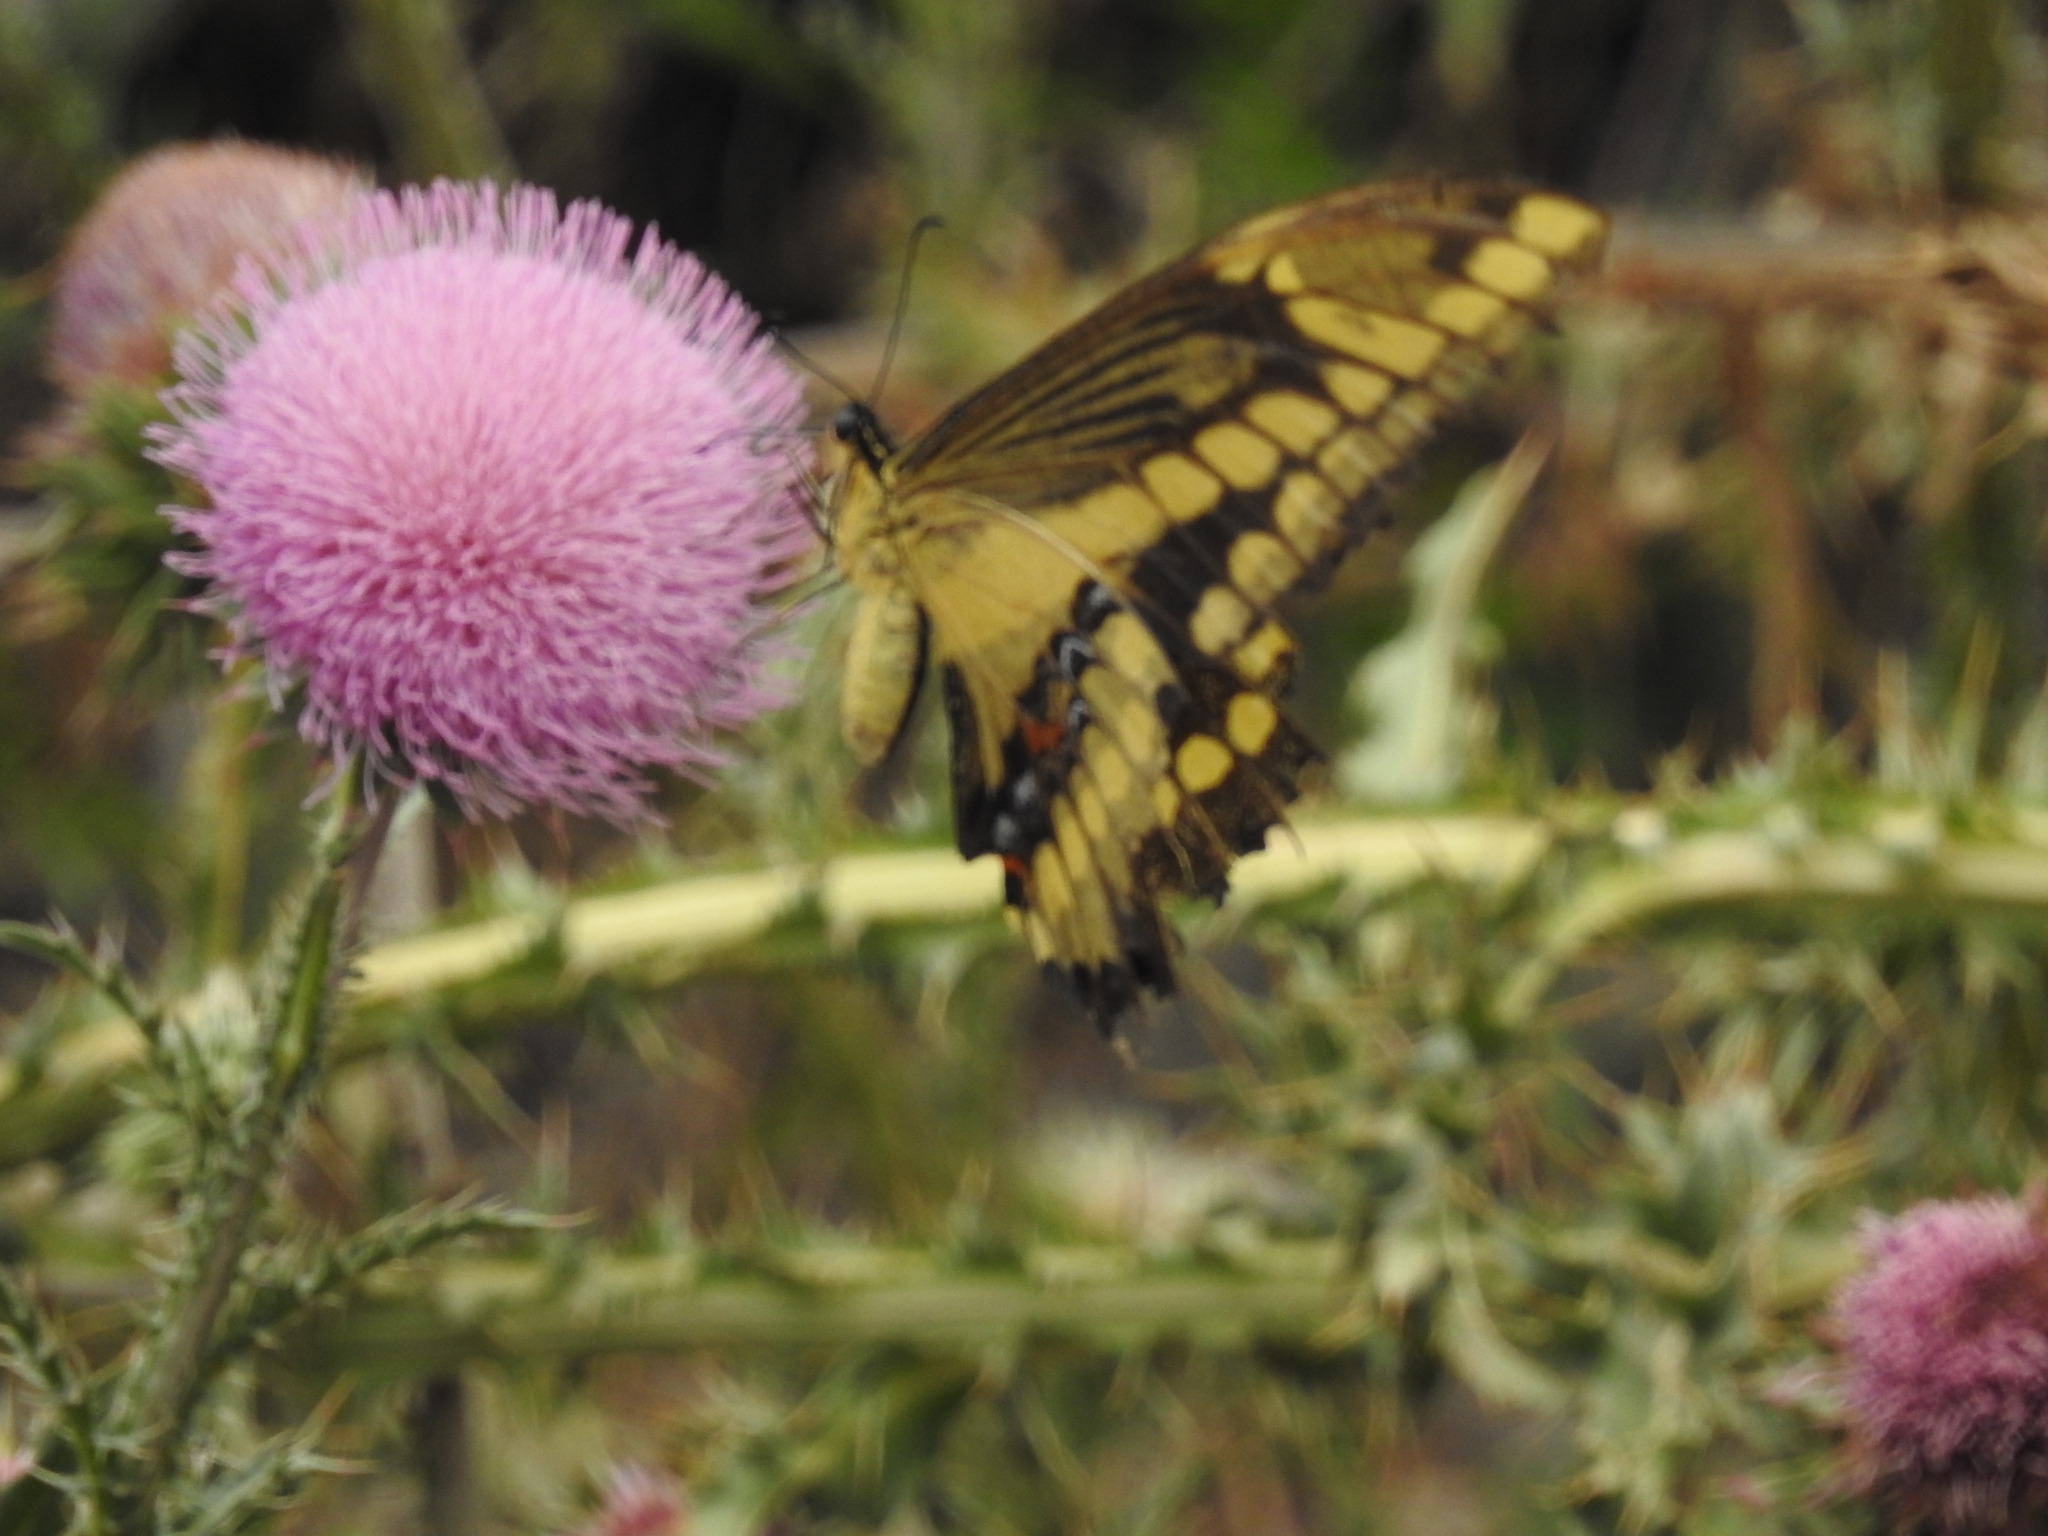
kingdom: Animalia
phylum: Arthropoda
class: Insecta
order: Lepidoptera
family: Papilionidae
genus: Papilio
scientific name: Papilio thoas
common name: King swallowtail
